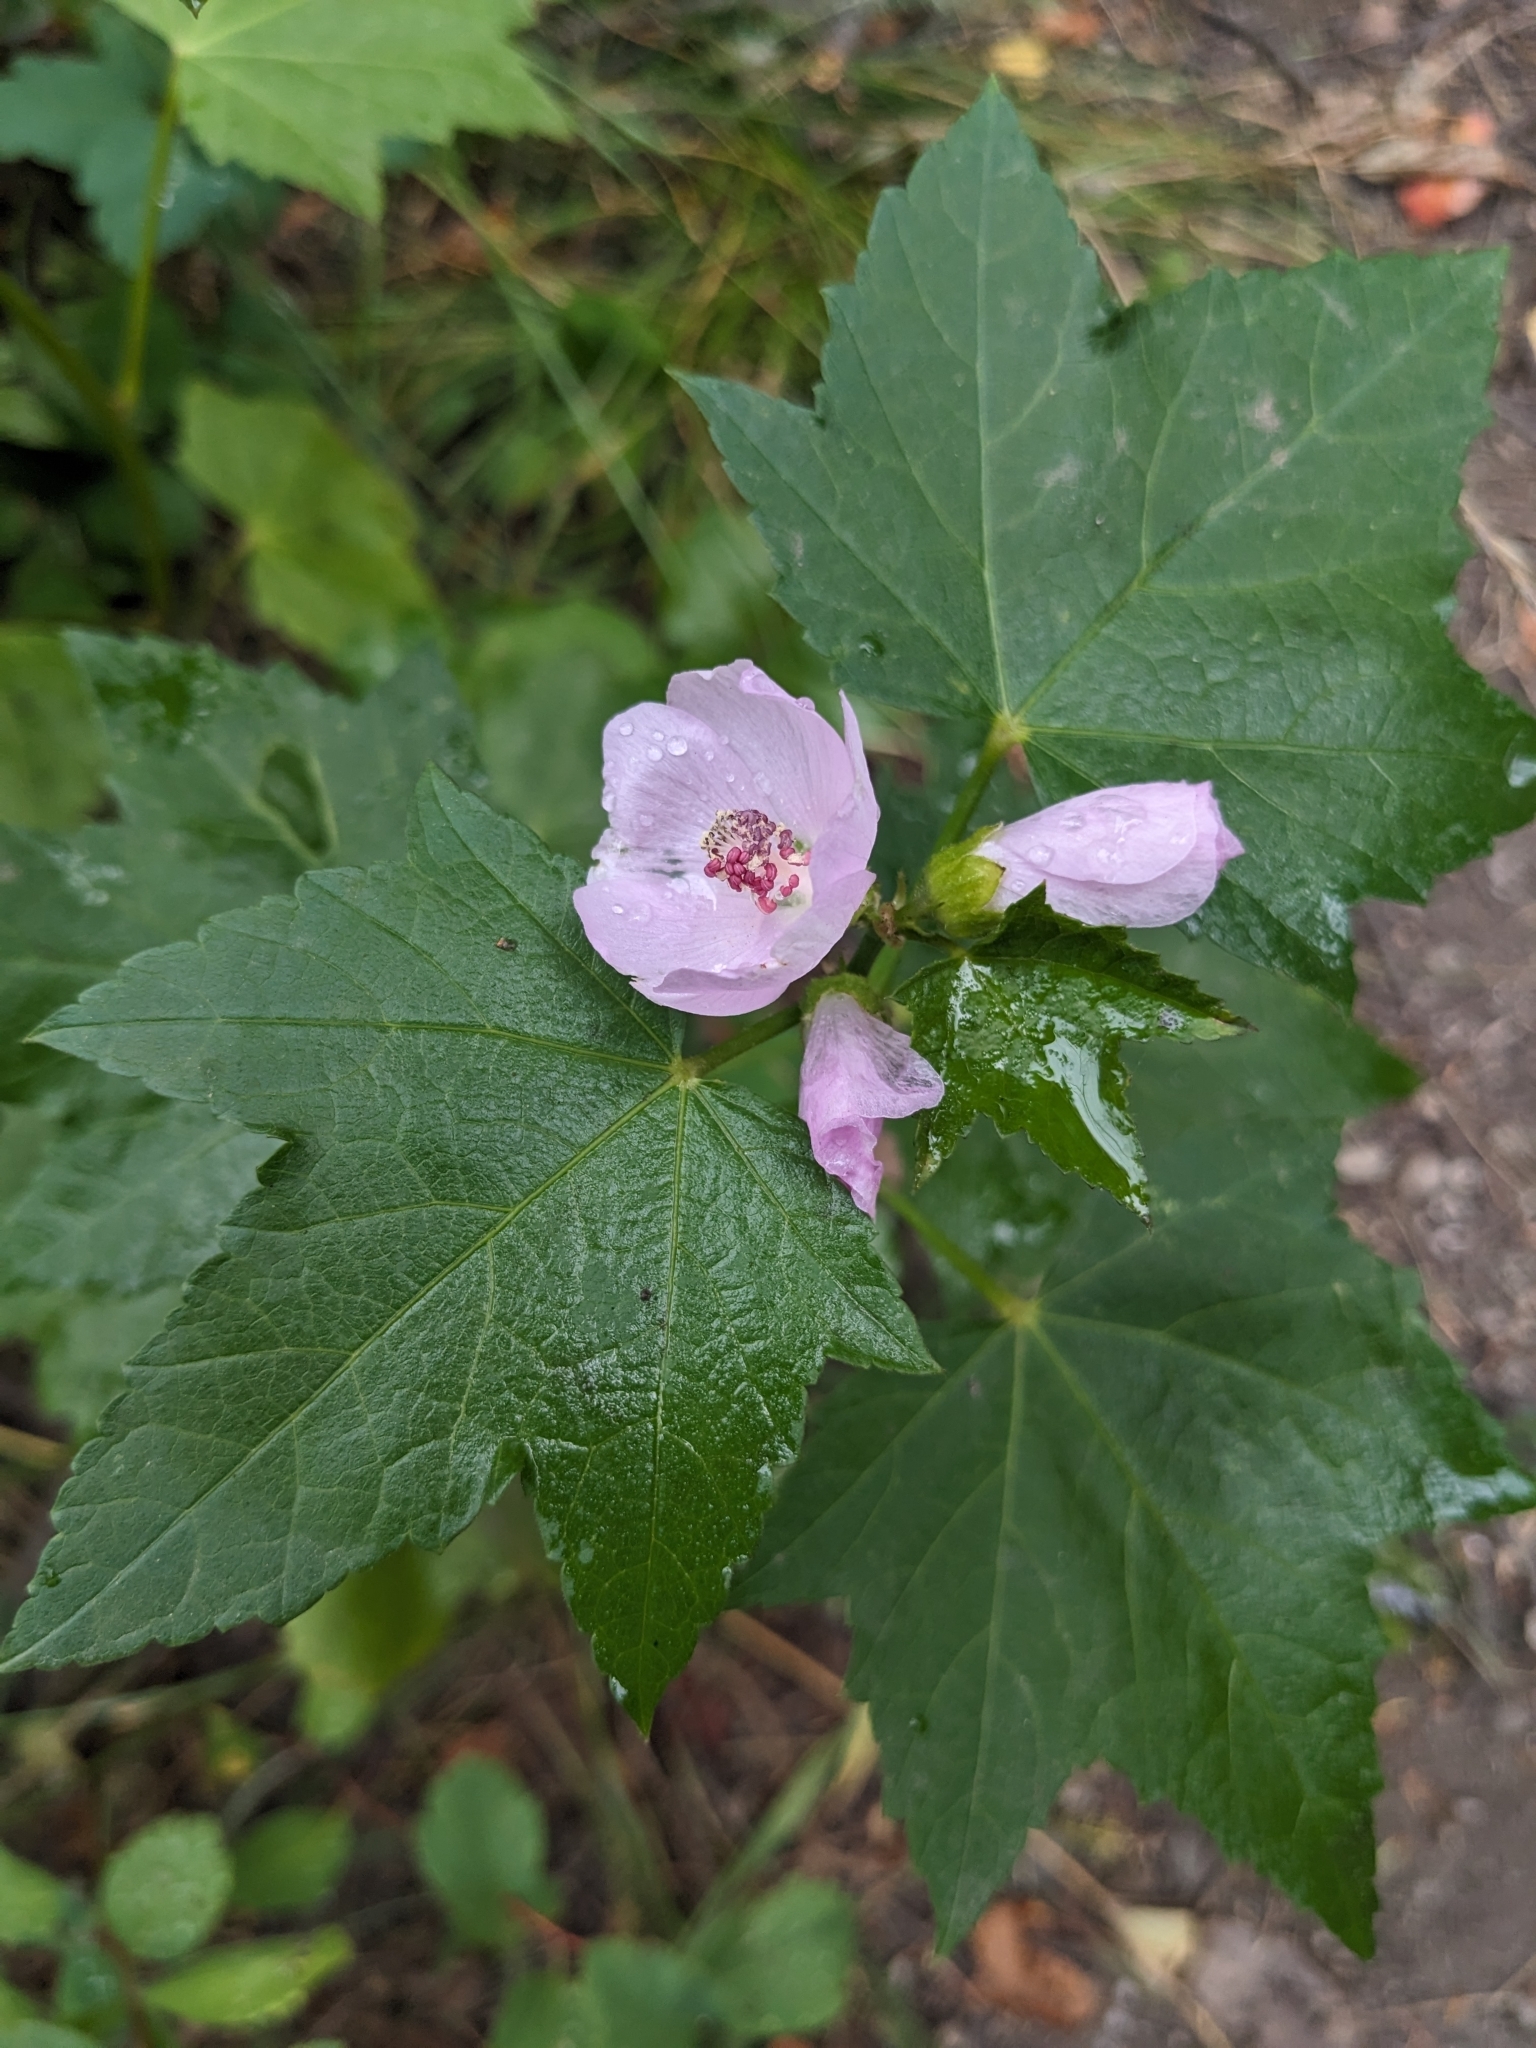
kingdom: Plantae
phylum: Tracheophyta
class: Magnoliopsida
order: Malvales
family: Malvaceae
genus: Iliamna
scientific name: Iliamna rivularis
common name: Wild hollyhock
